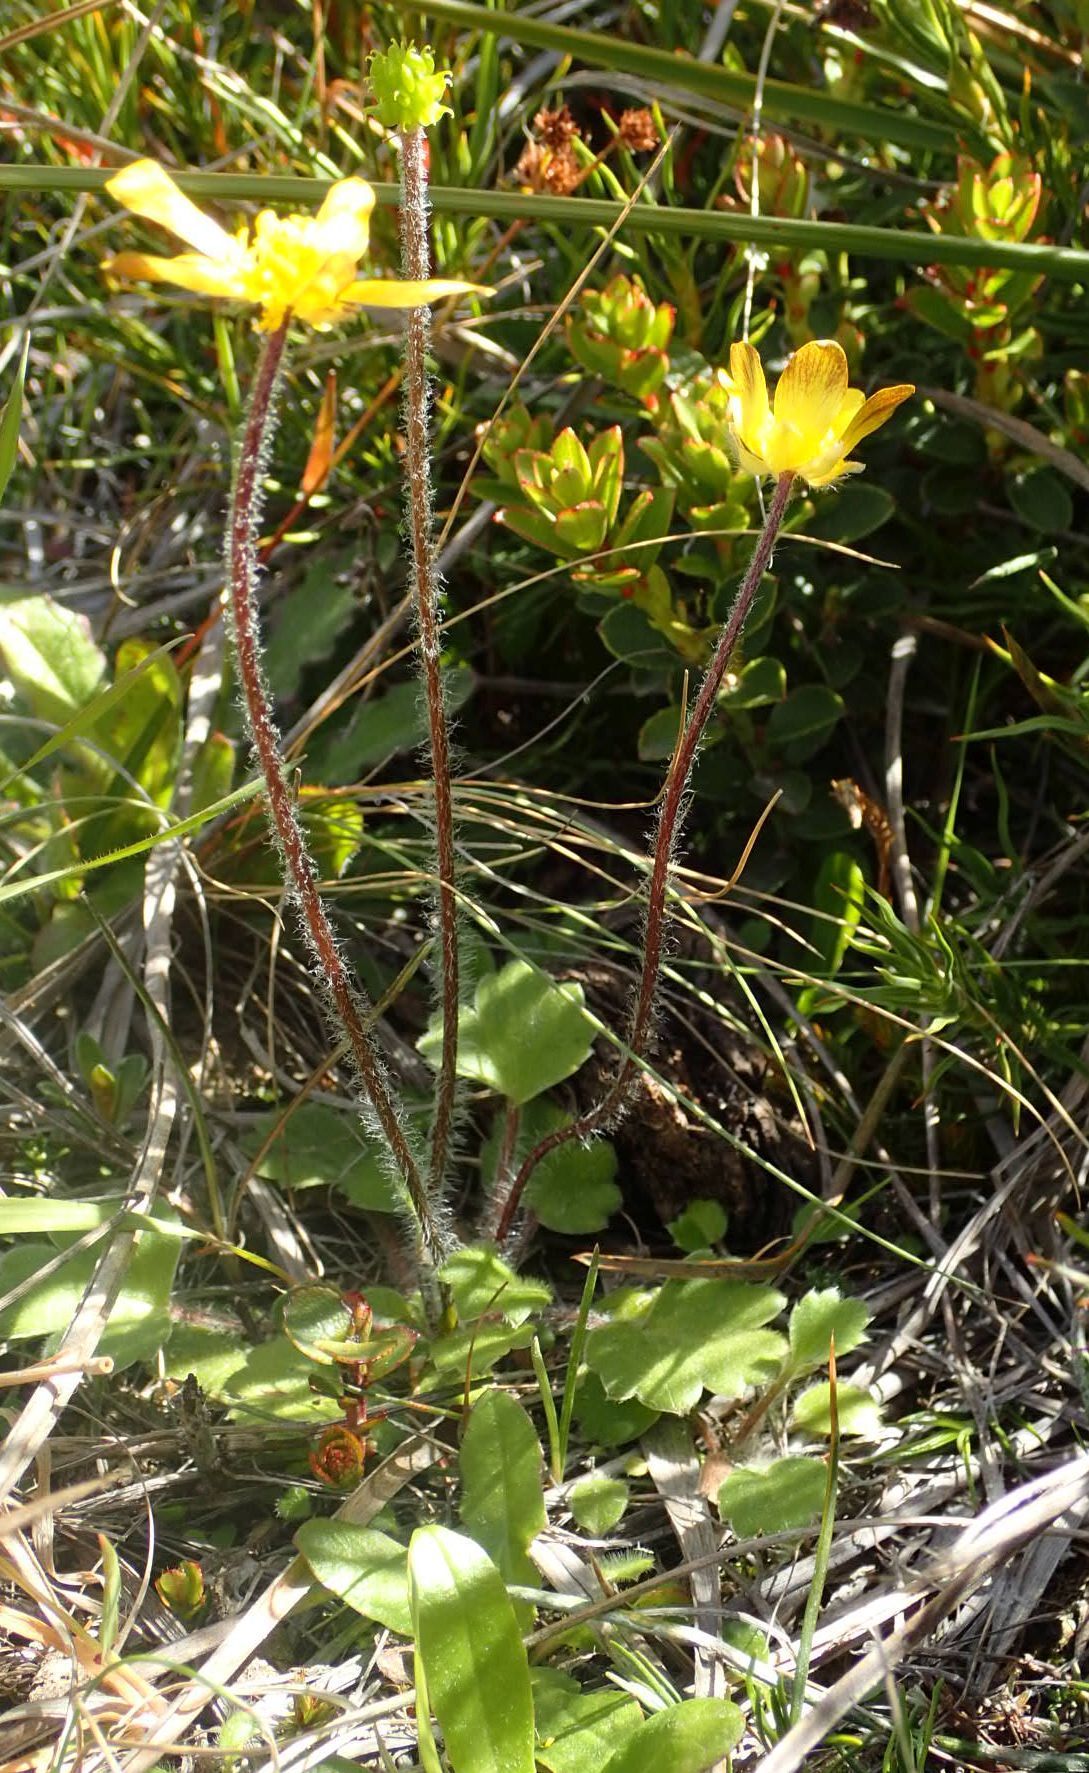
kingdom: Plantae
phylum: Tracheophyta
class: Magnoliopsida
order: Ranunculales
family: Ranunculaceae
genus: Ranunculus
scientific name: Ranunculus multiscapus
